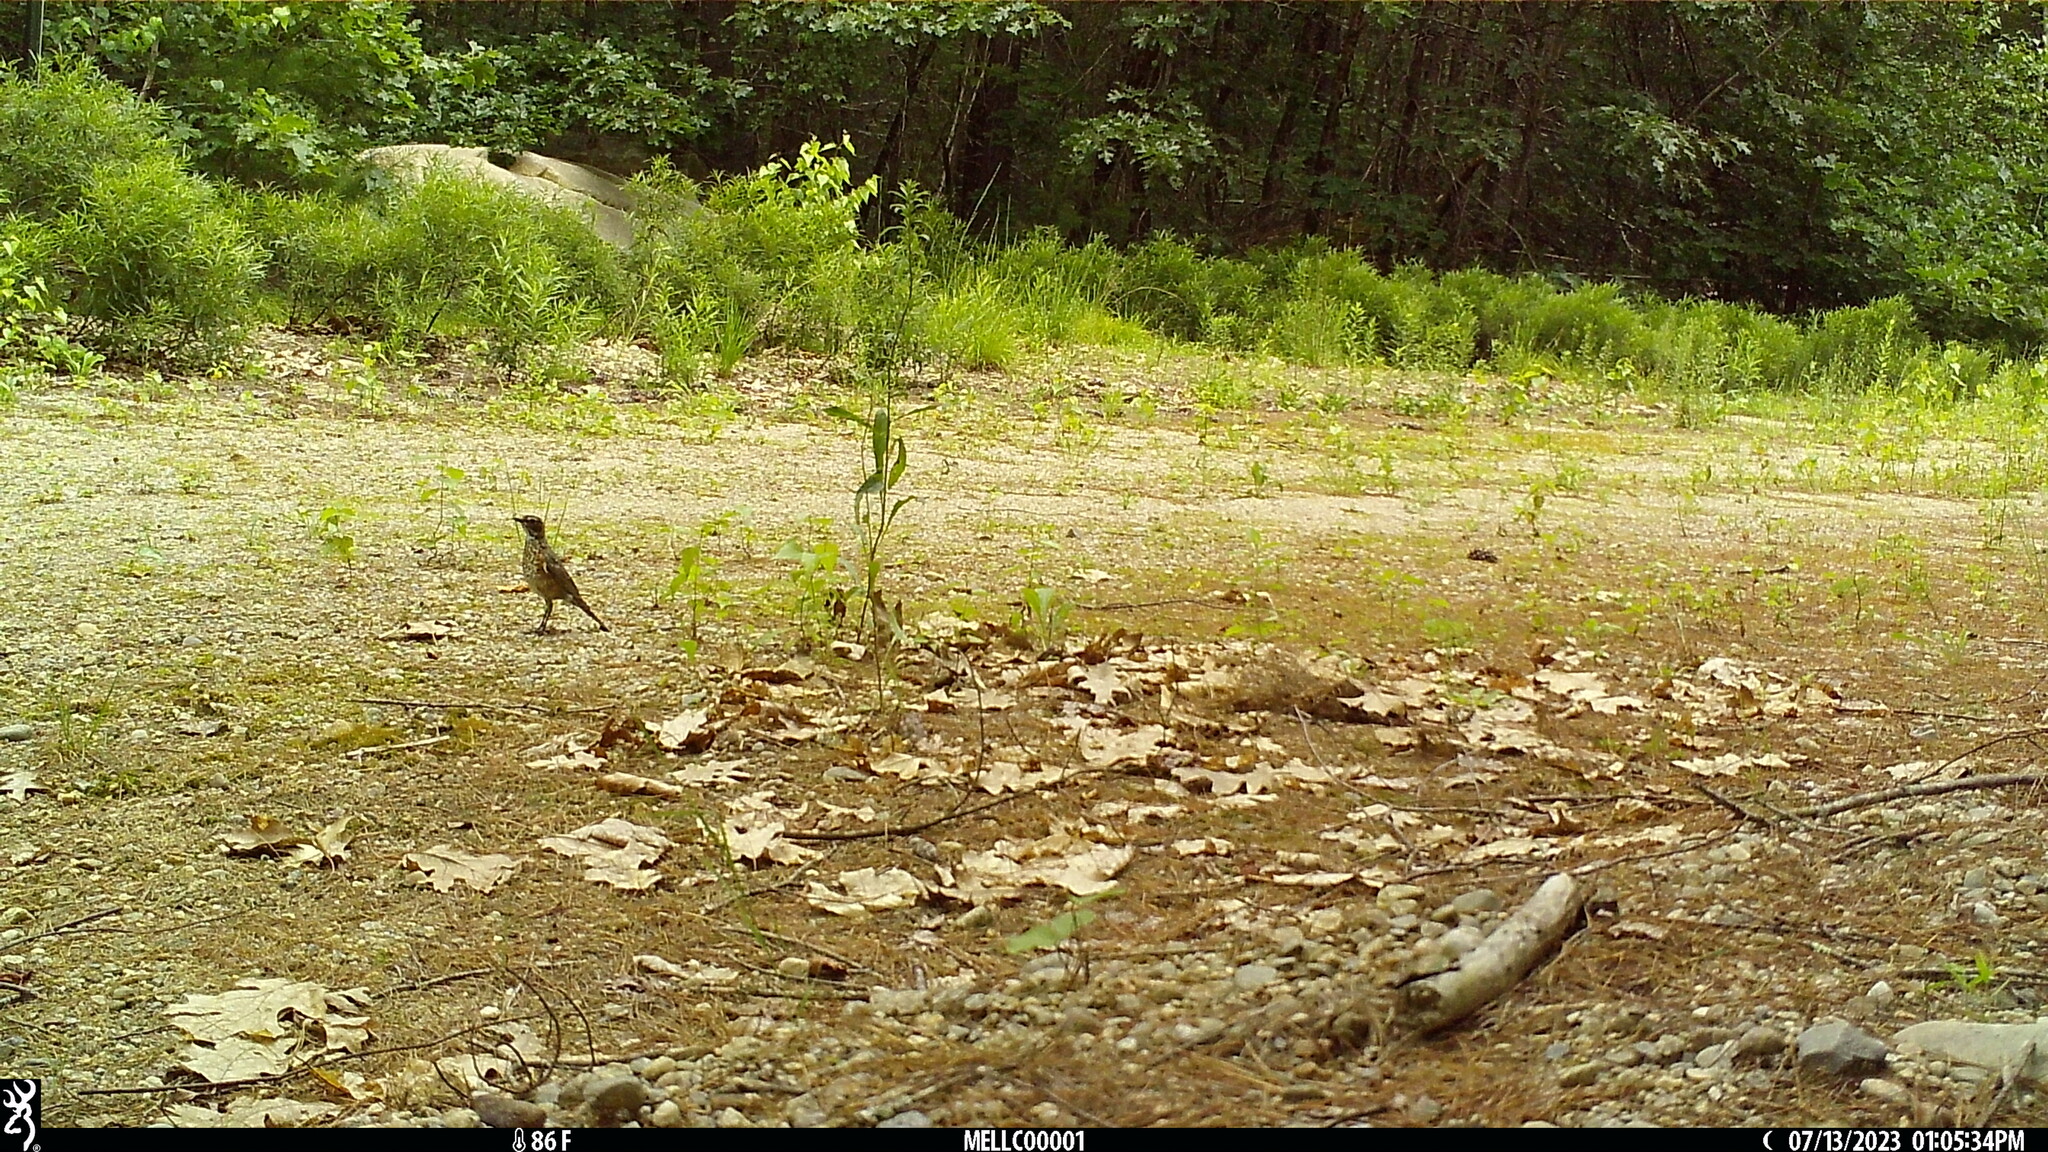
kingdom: Animalia
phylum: Chordata
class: Aves
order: Passeriformes
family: Turdidae
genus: Turdus
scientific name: Turdus migratorius
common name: American robin
